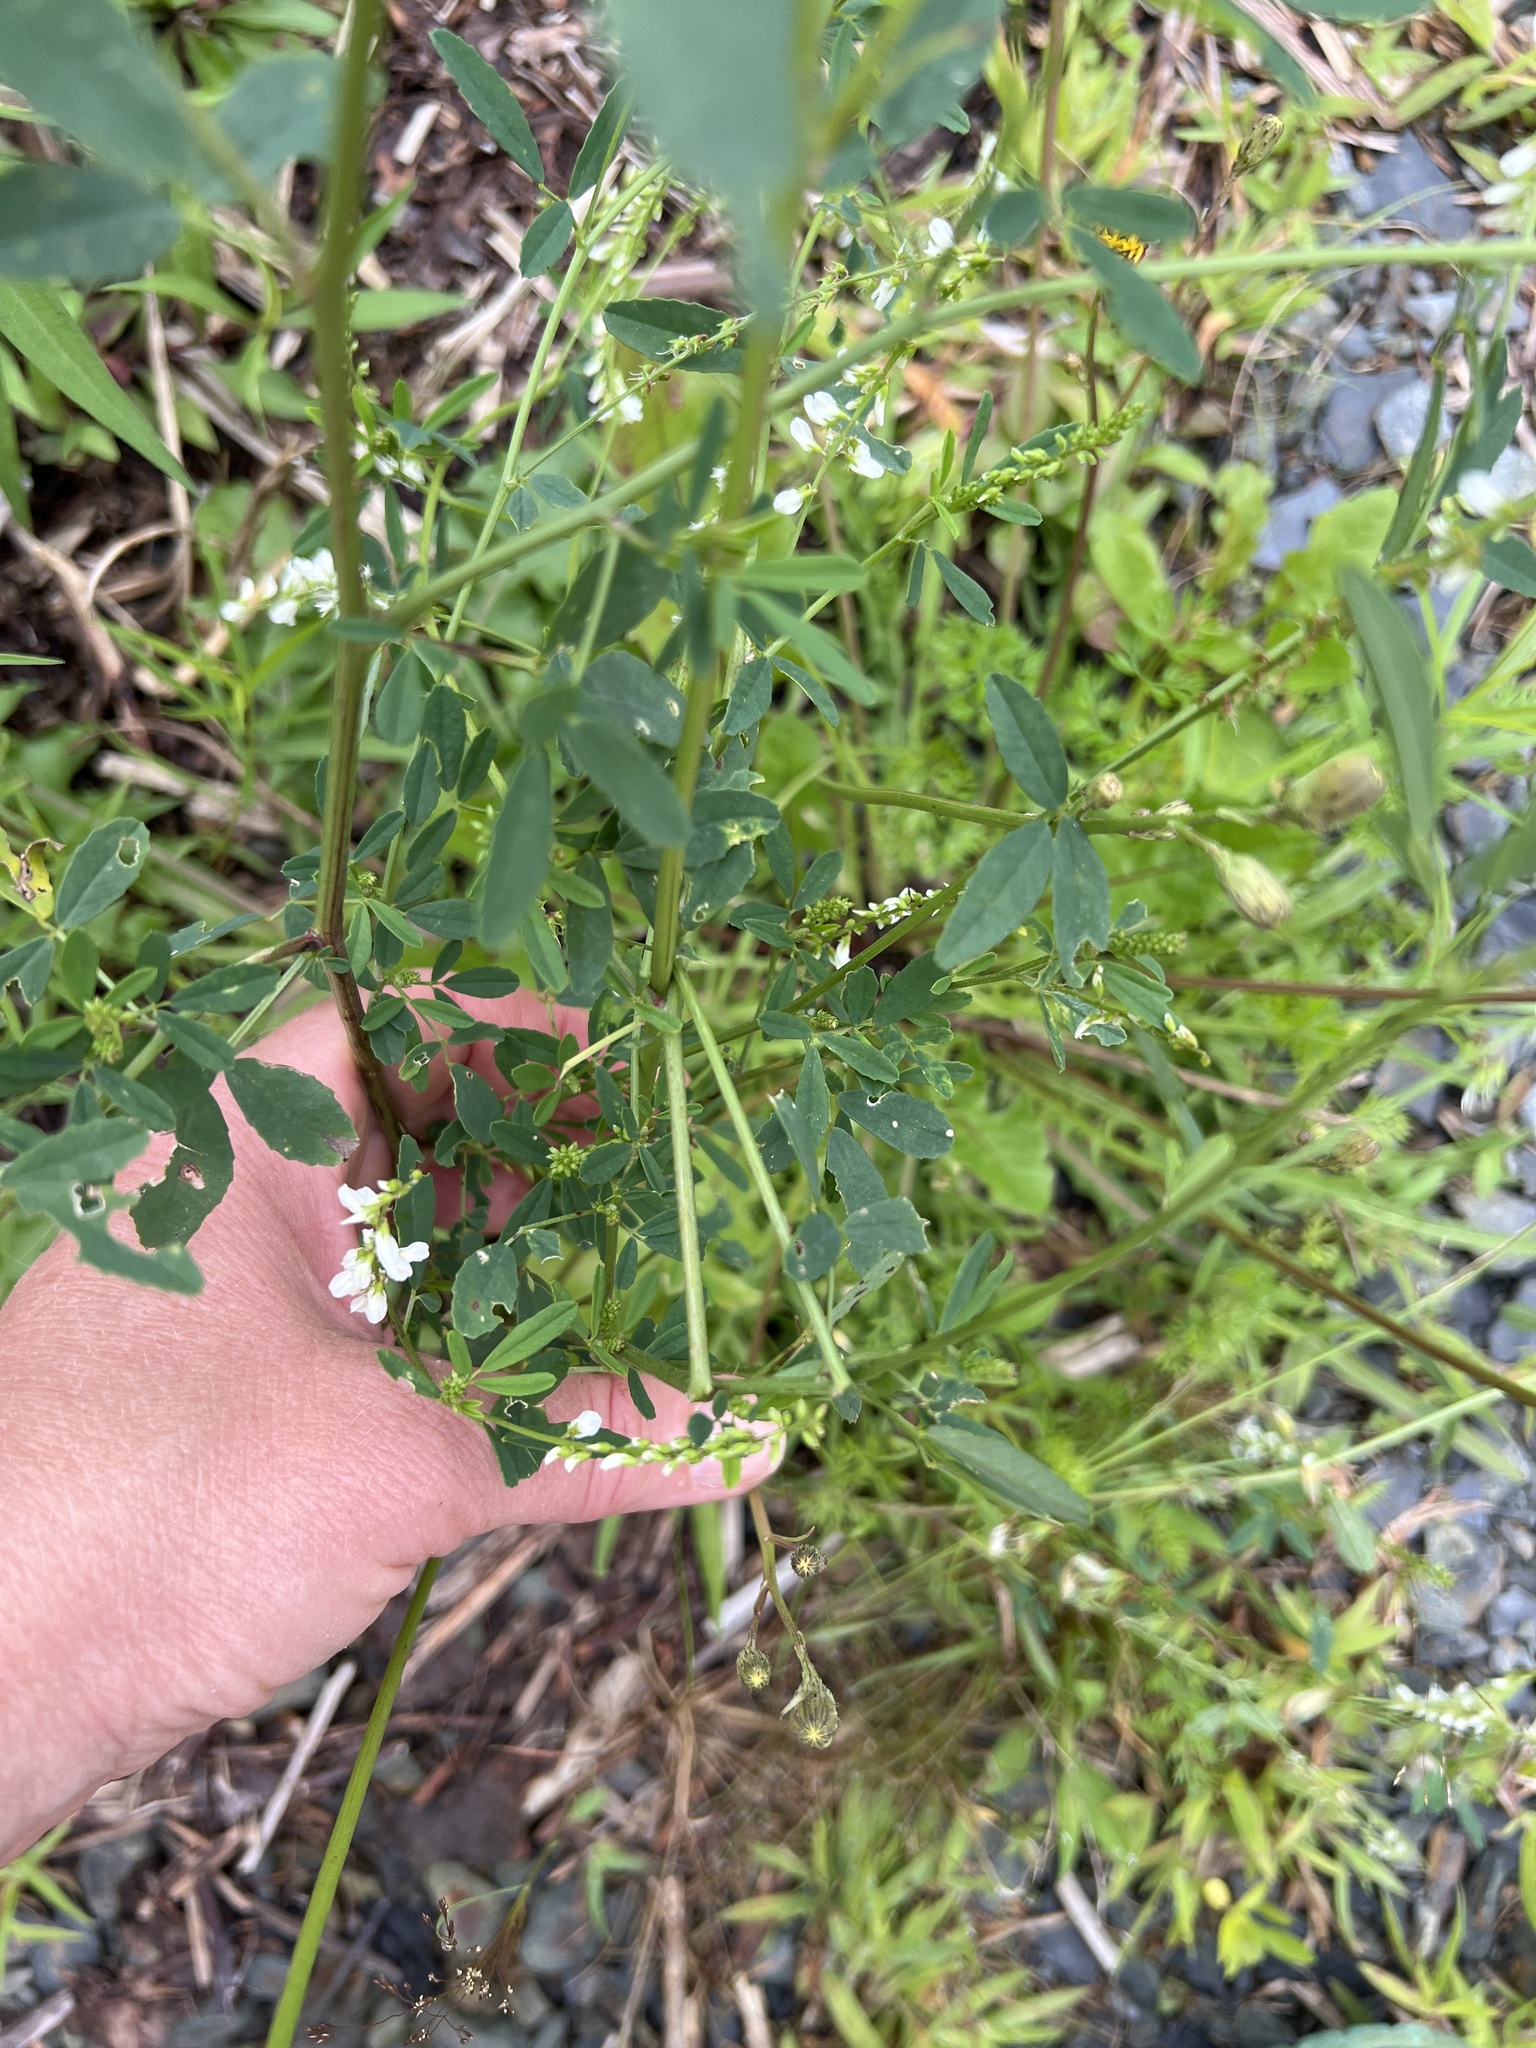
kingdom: Plantae
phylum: Tracheophyta
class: Magnoliopsida
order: Fabales
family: Fabaceae
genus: Melilotus
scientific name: Melilotus albus
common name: White melilot
